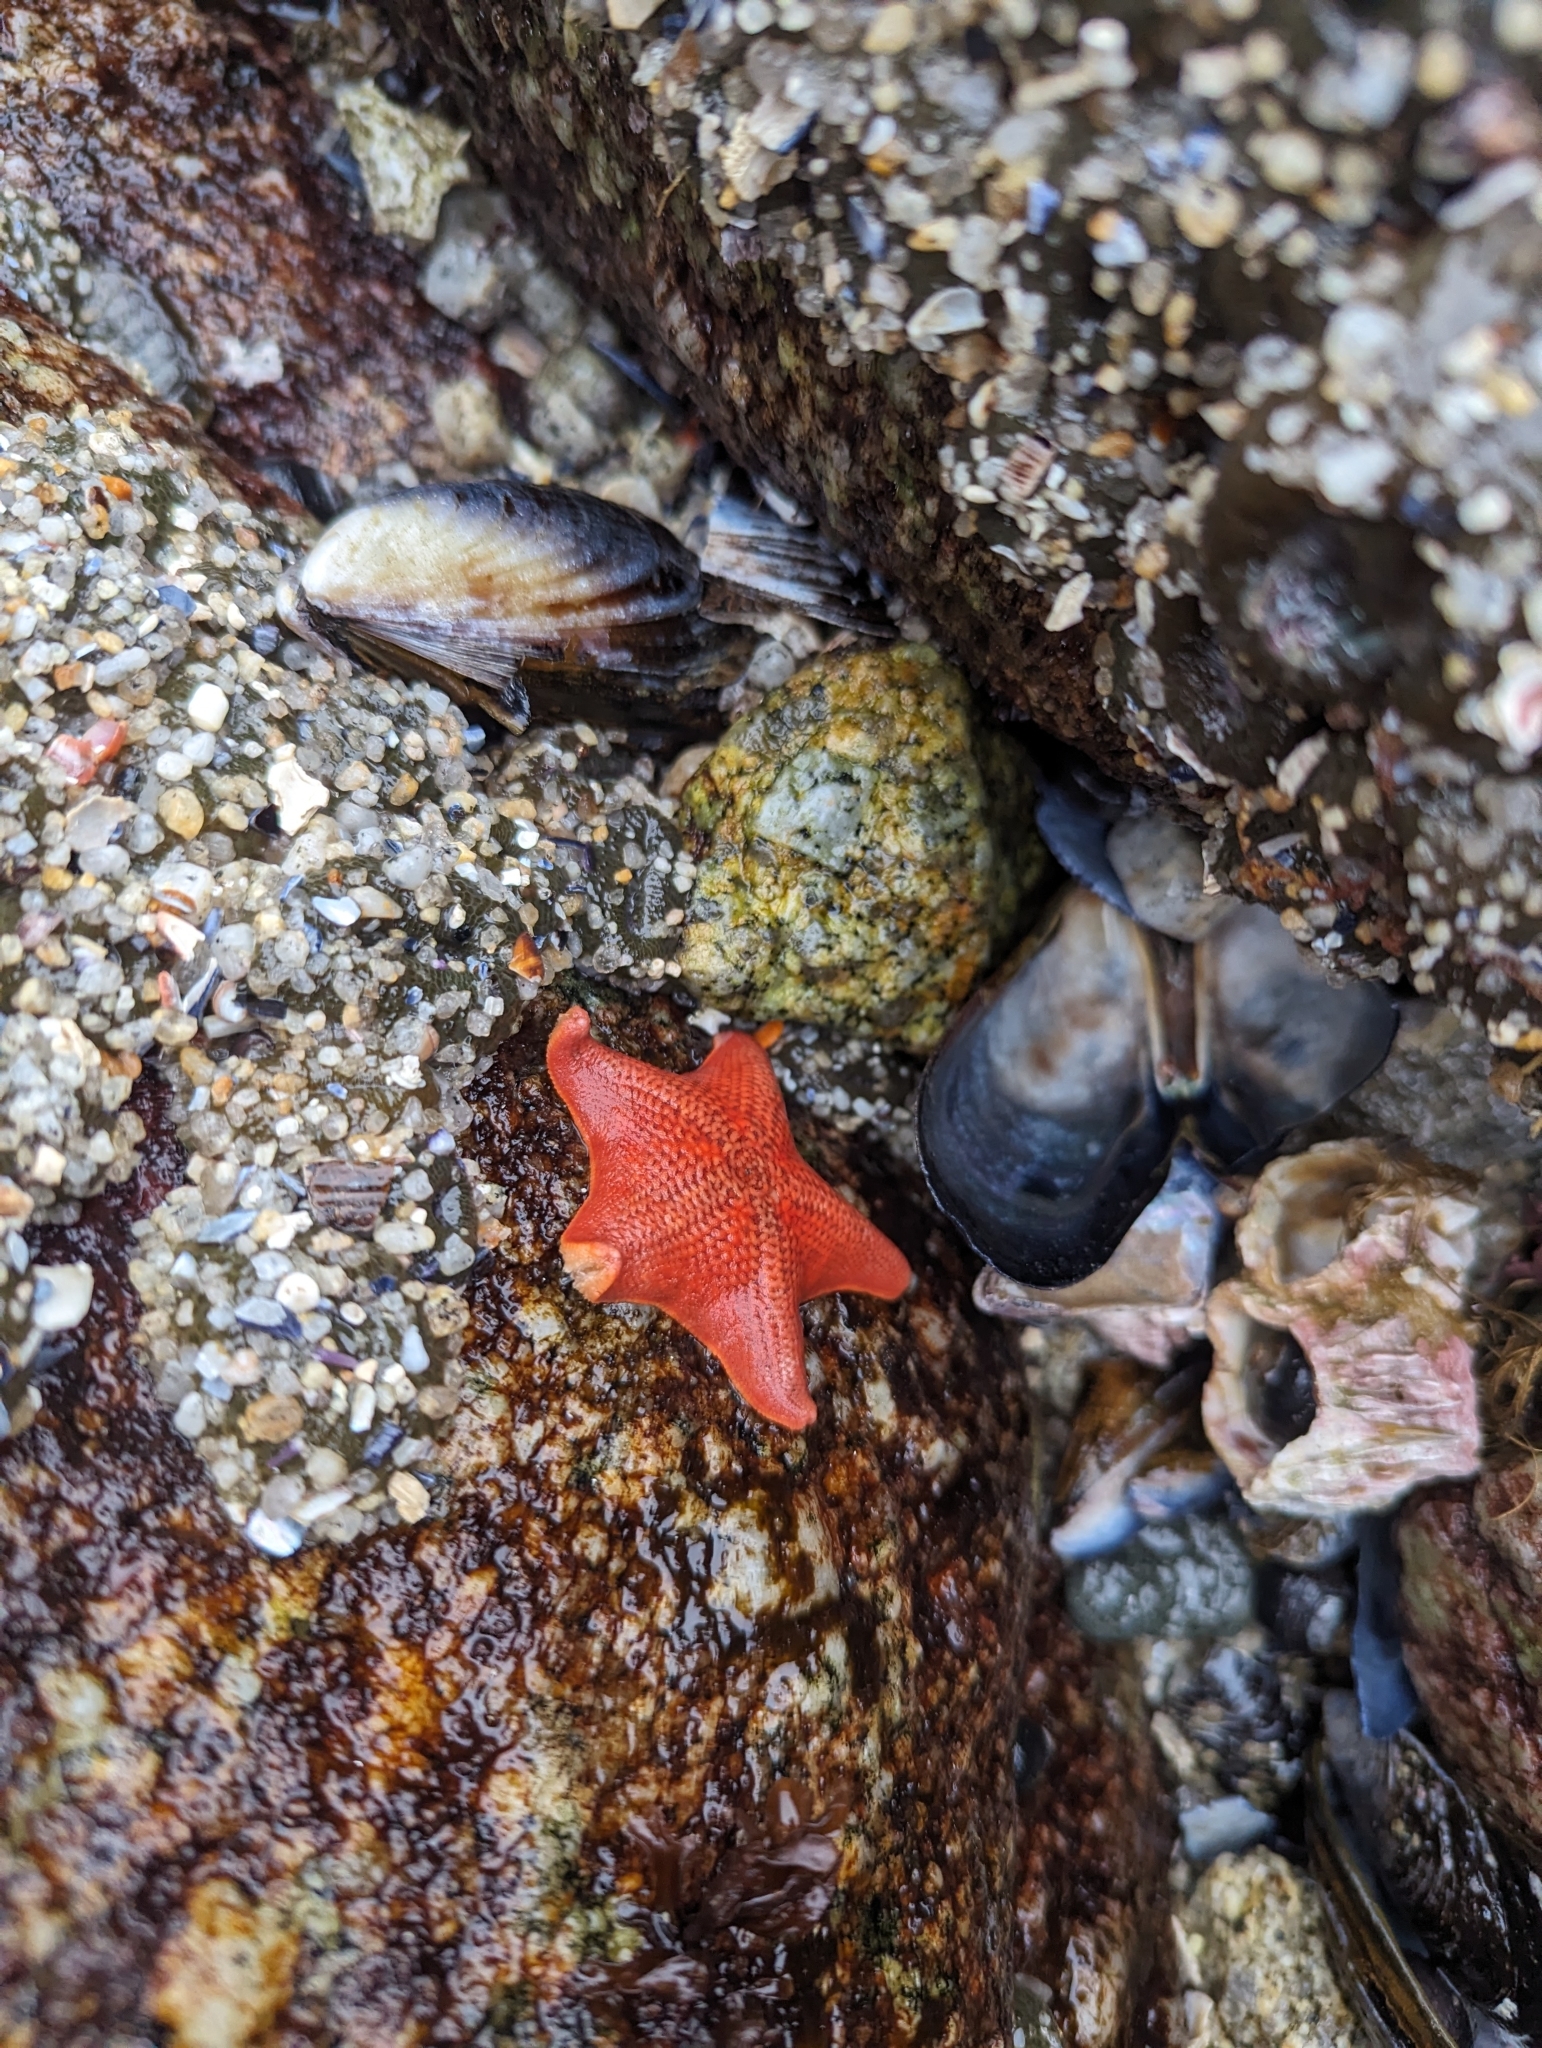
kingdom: Animalia
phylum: Echinodermata
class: Asteroidea
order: Valvatida
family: Asterinidae
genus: Patiria
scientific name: Patiria miniata
